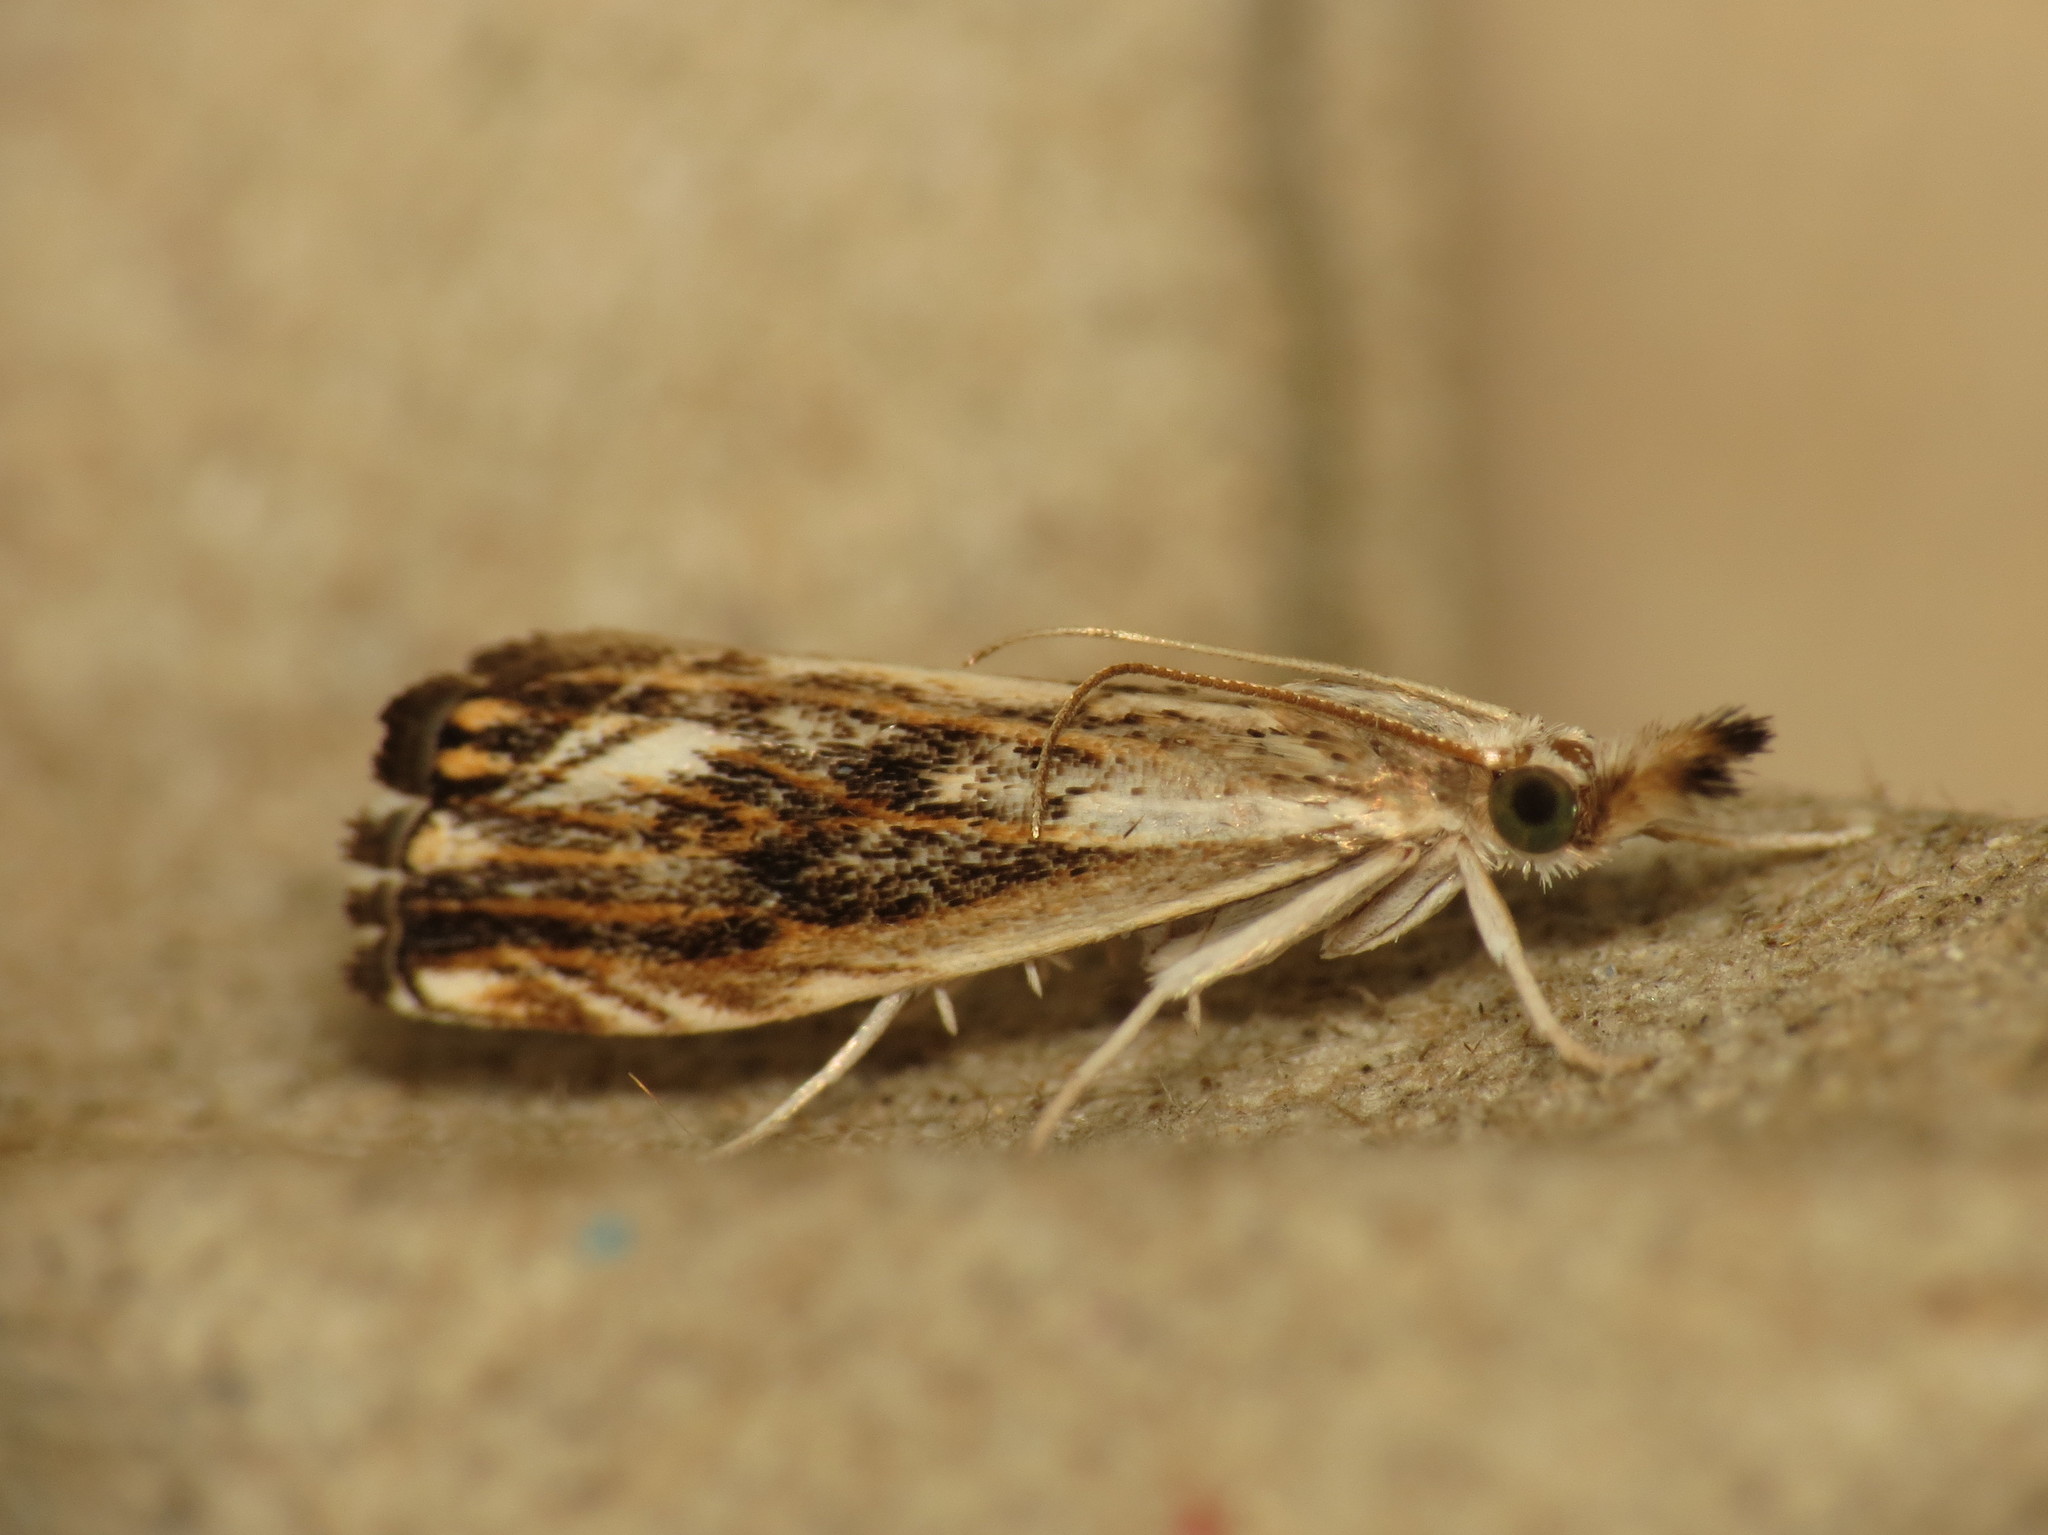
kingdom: Animalia
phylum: Arthropoda
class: Insecta
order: Lepidoptera
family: Crambidae
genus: Catoptria
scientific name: Catoptria verellus
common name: Marbled grass-veneer
